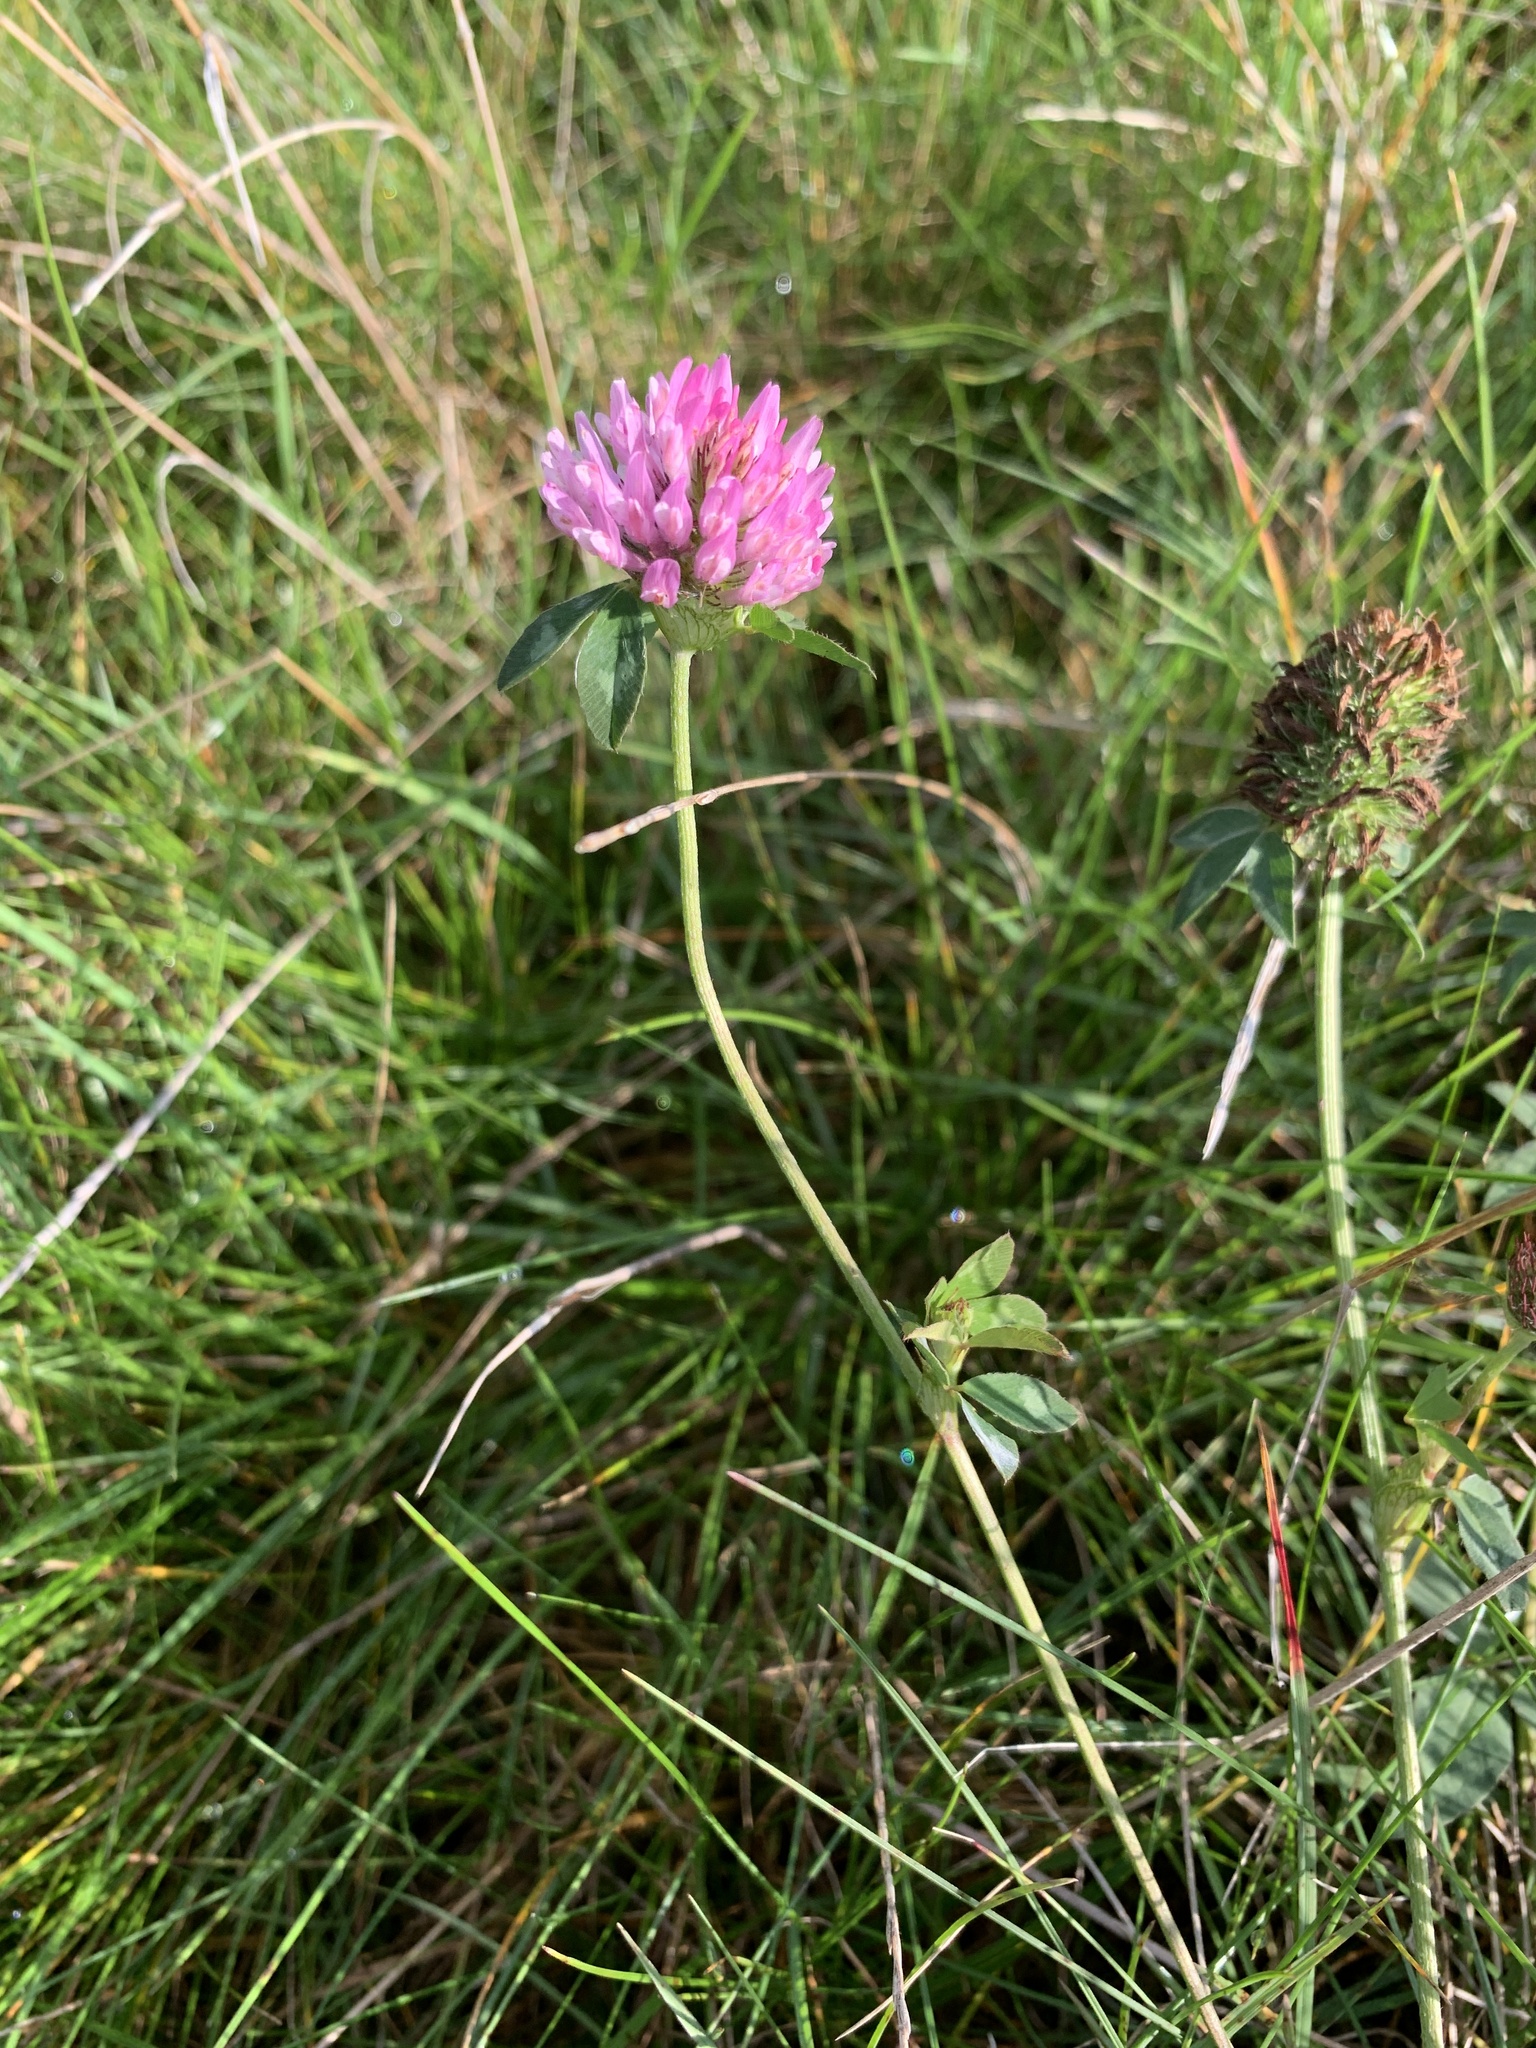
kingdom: Plantae
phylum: Tracheophyta
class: Magnoliopsida
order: Fabales
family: Fabaceae
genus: Trifolium
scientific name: Trifolium pratense
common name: Red clover
